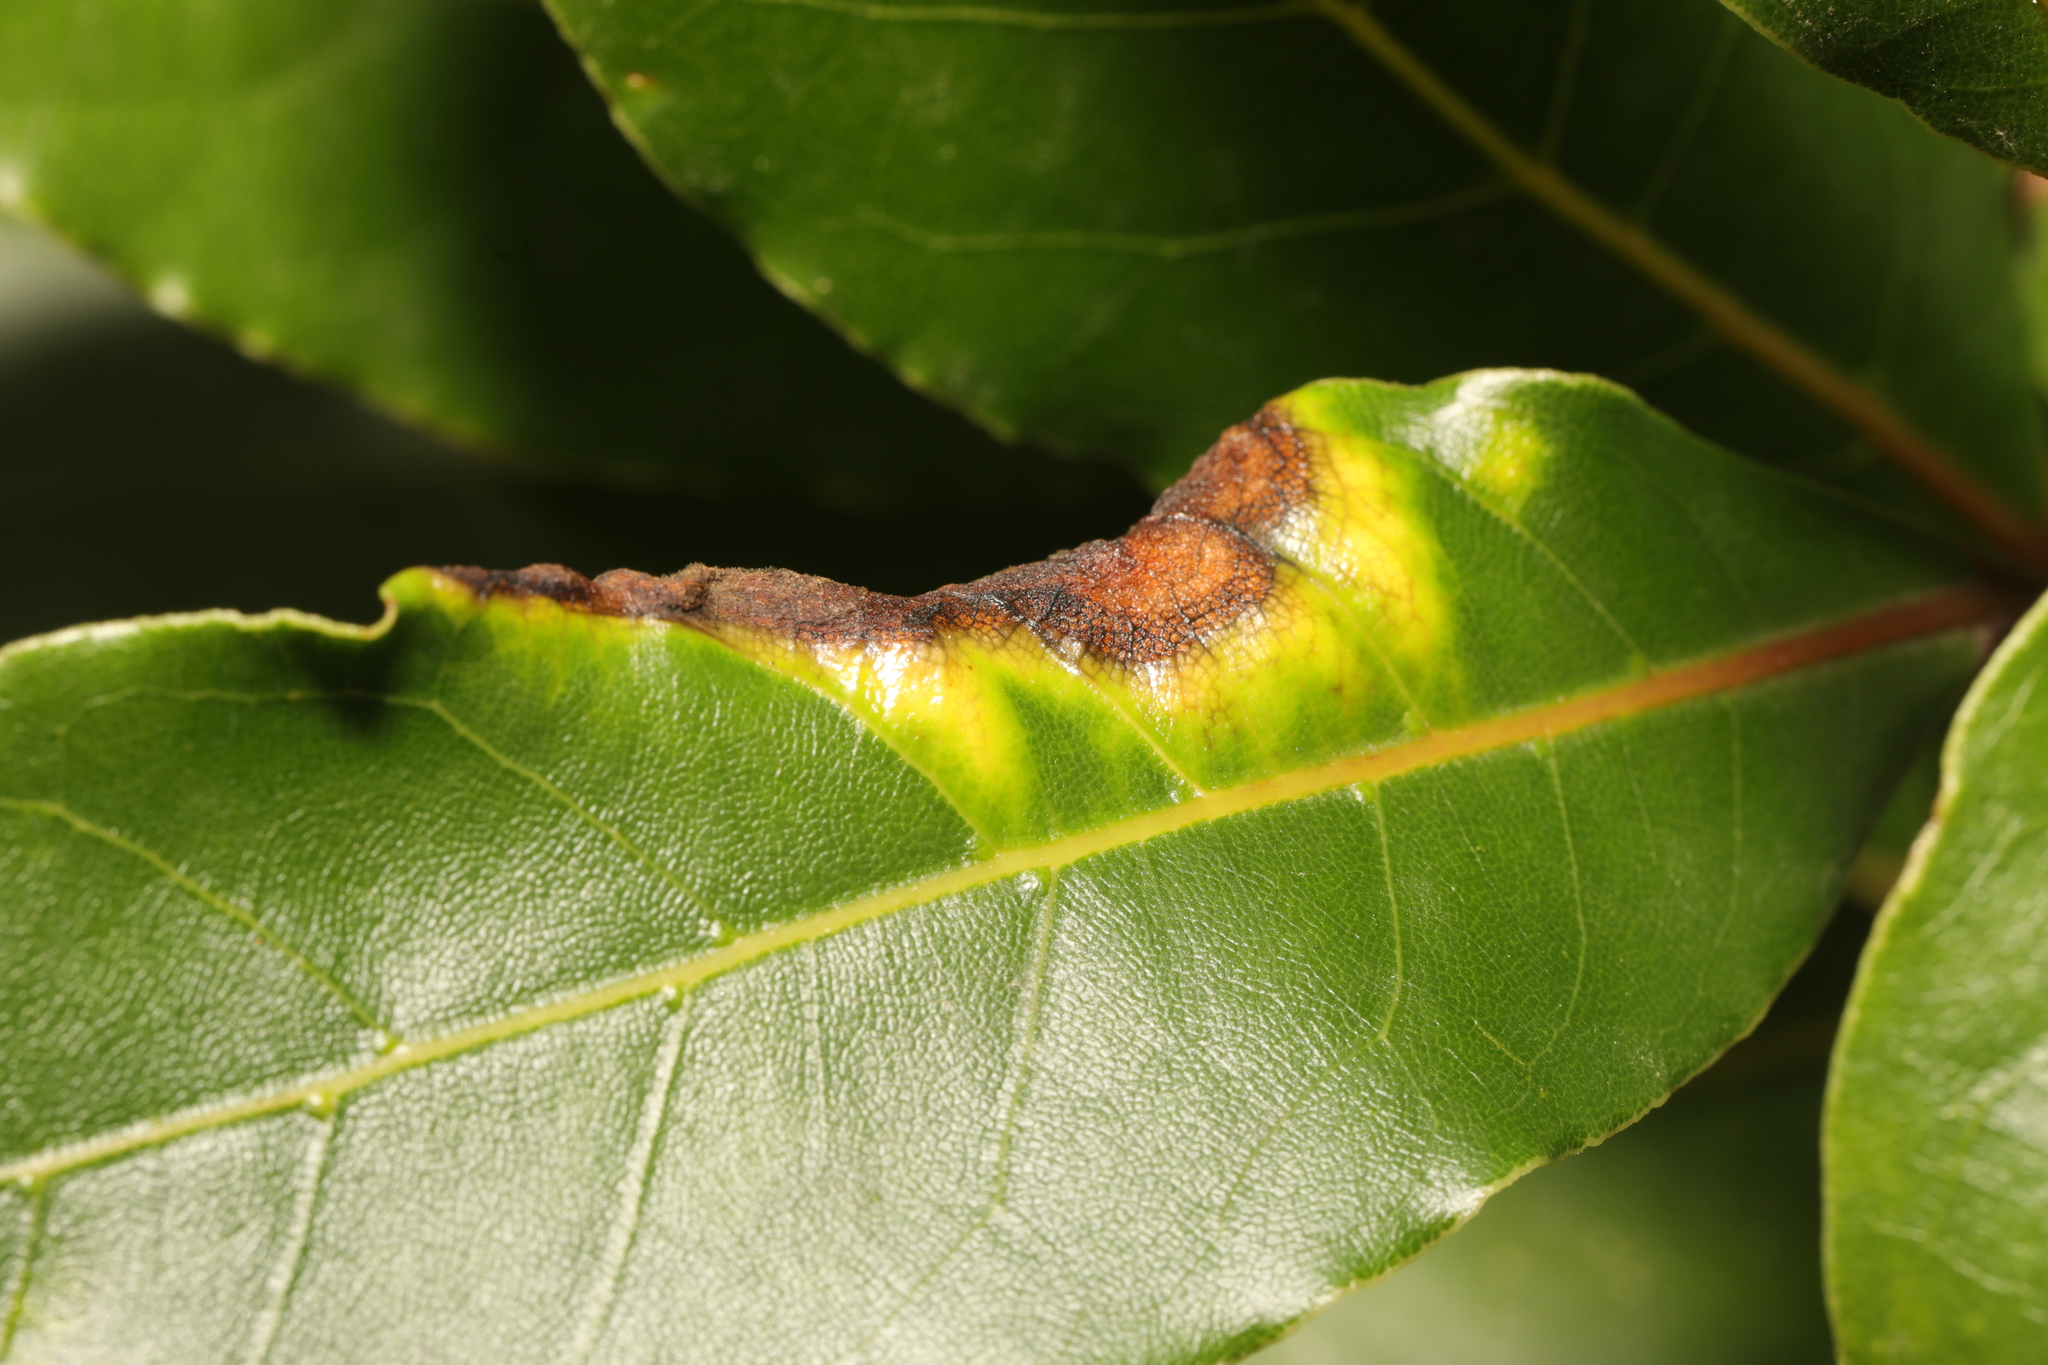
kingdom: Animalia
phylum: Arthropoda
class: Insecta
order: Hemiptera
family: Triozidae
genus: Lauritrioza
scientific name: Lauritrioza alacris
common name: Laurel psyllid
